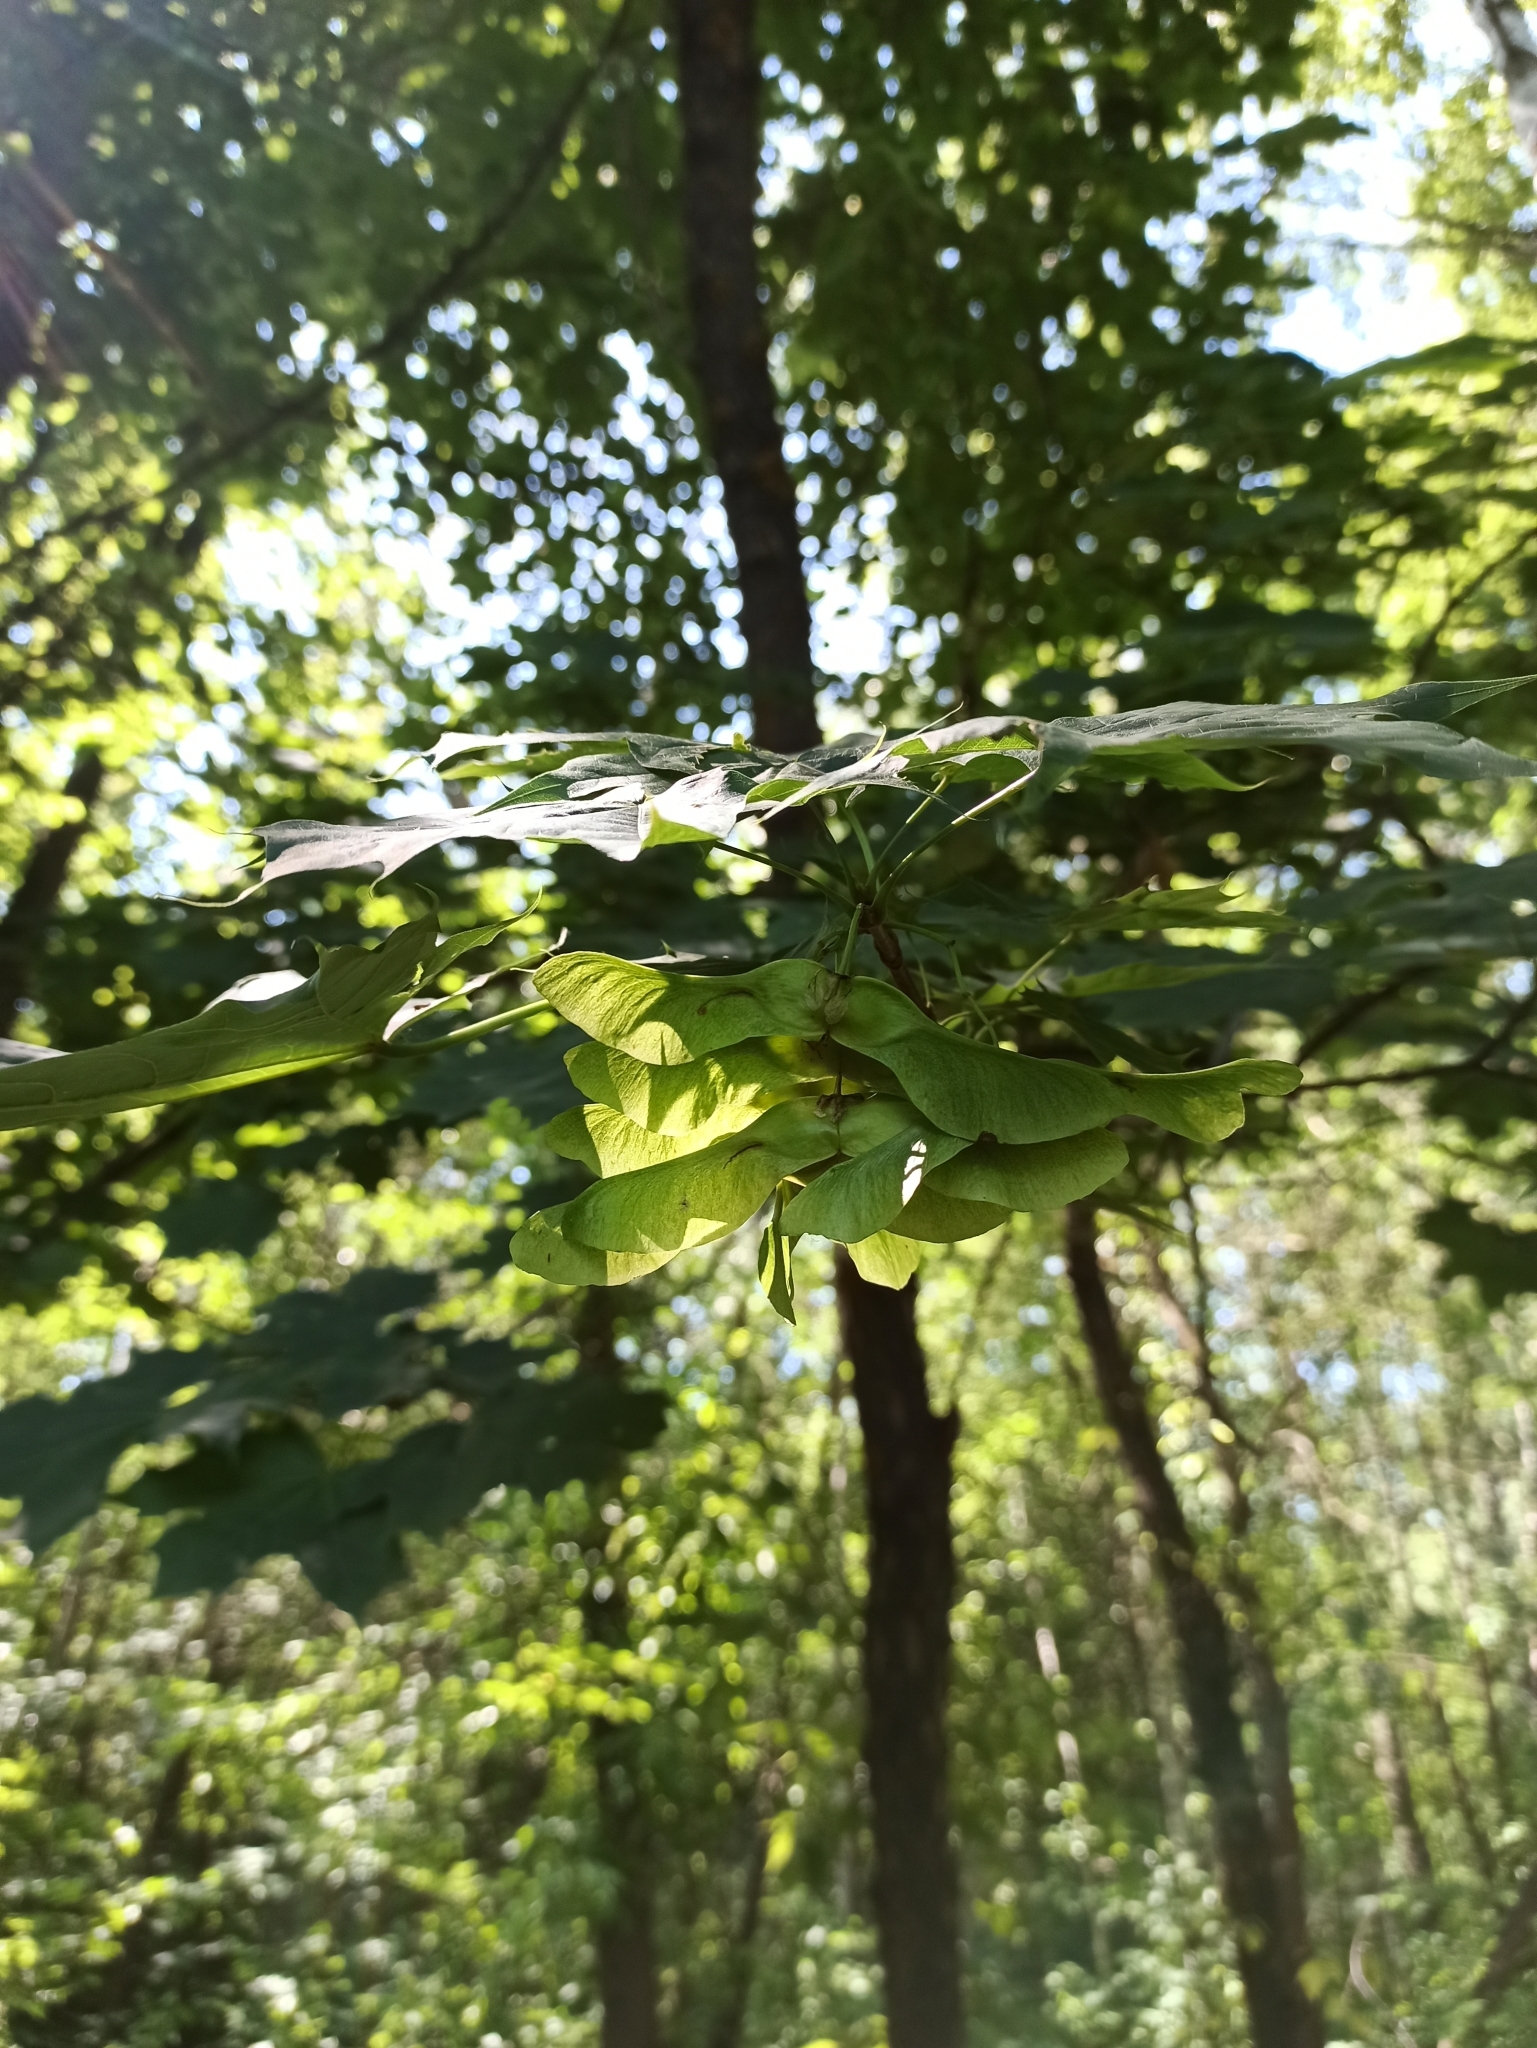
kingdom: Plantae
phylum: Tracheophyta
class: Magnoliopsida
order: Sapindales
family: Sapindaceae
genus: Acer
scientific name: Acer platanoides
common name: Norway maple
